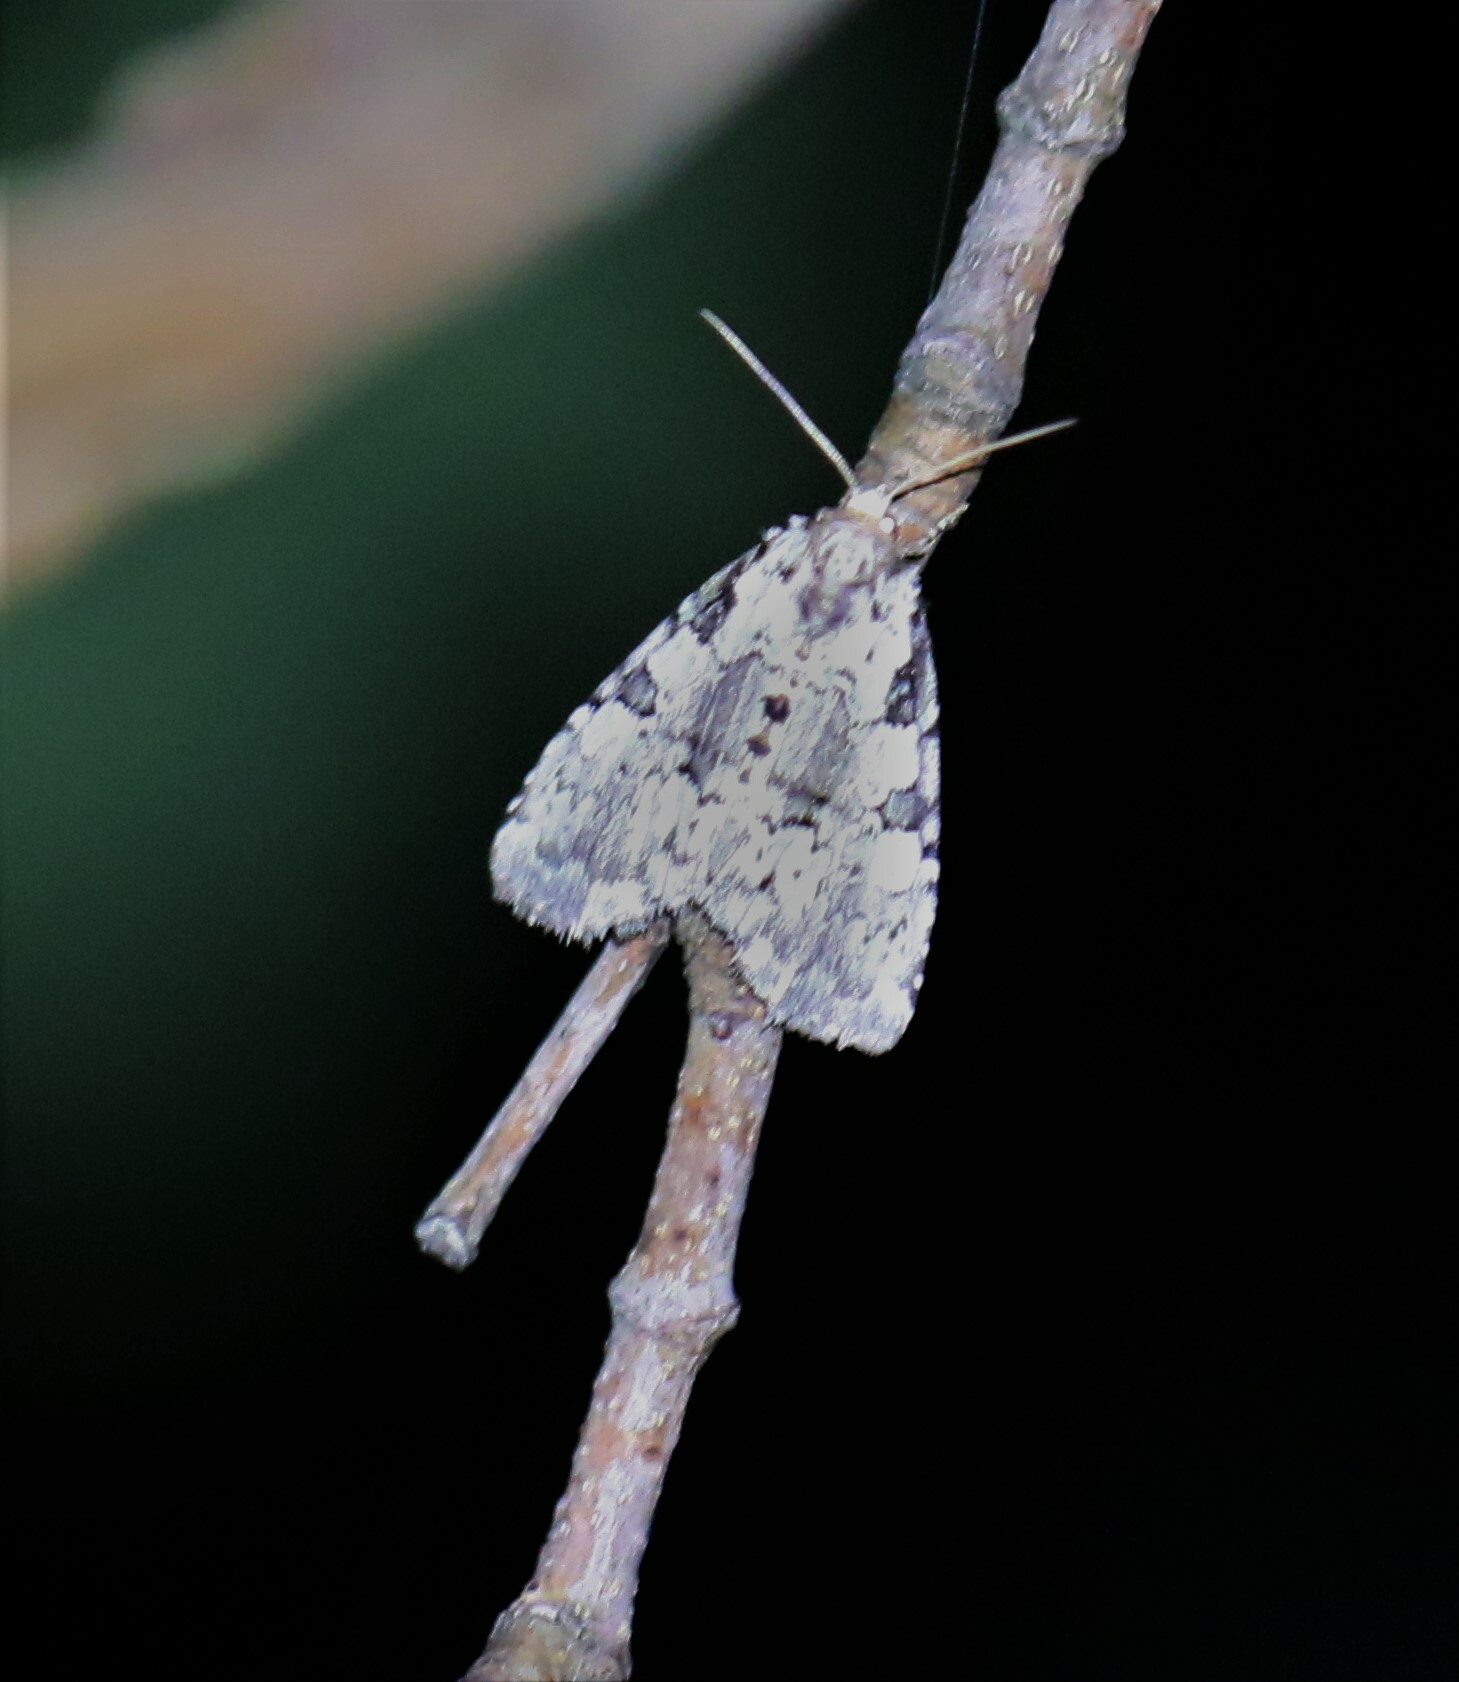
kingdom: Animalia
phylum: Arthropoda
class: Insecta
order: Lepidoptera
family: Noctuidae
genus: Leuconycta
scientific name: Leuconycta lepidula
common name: Marbled-green leuconycta moth
